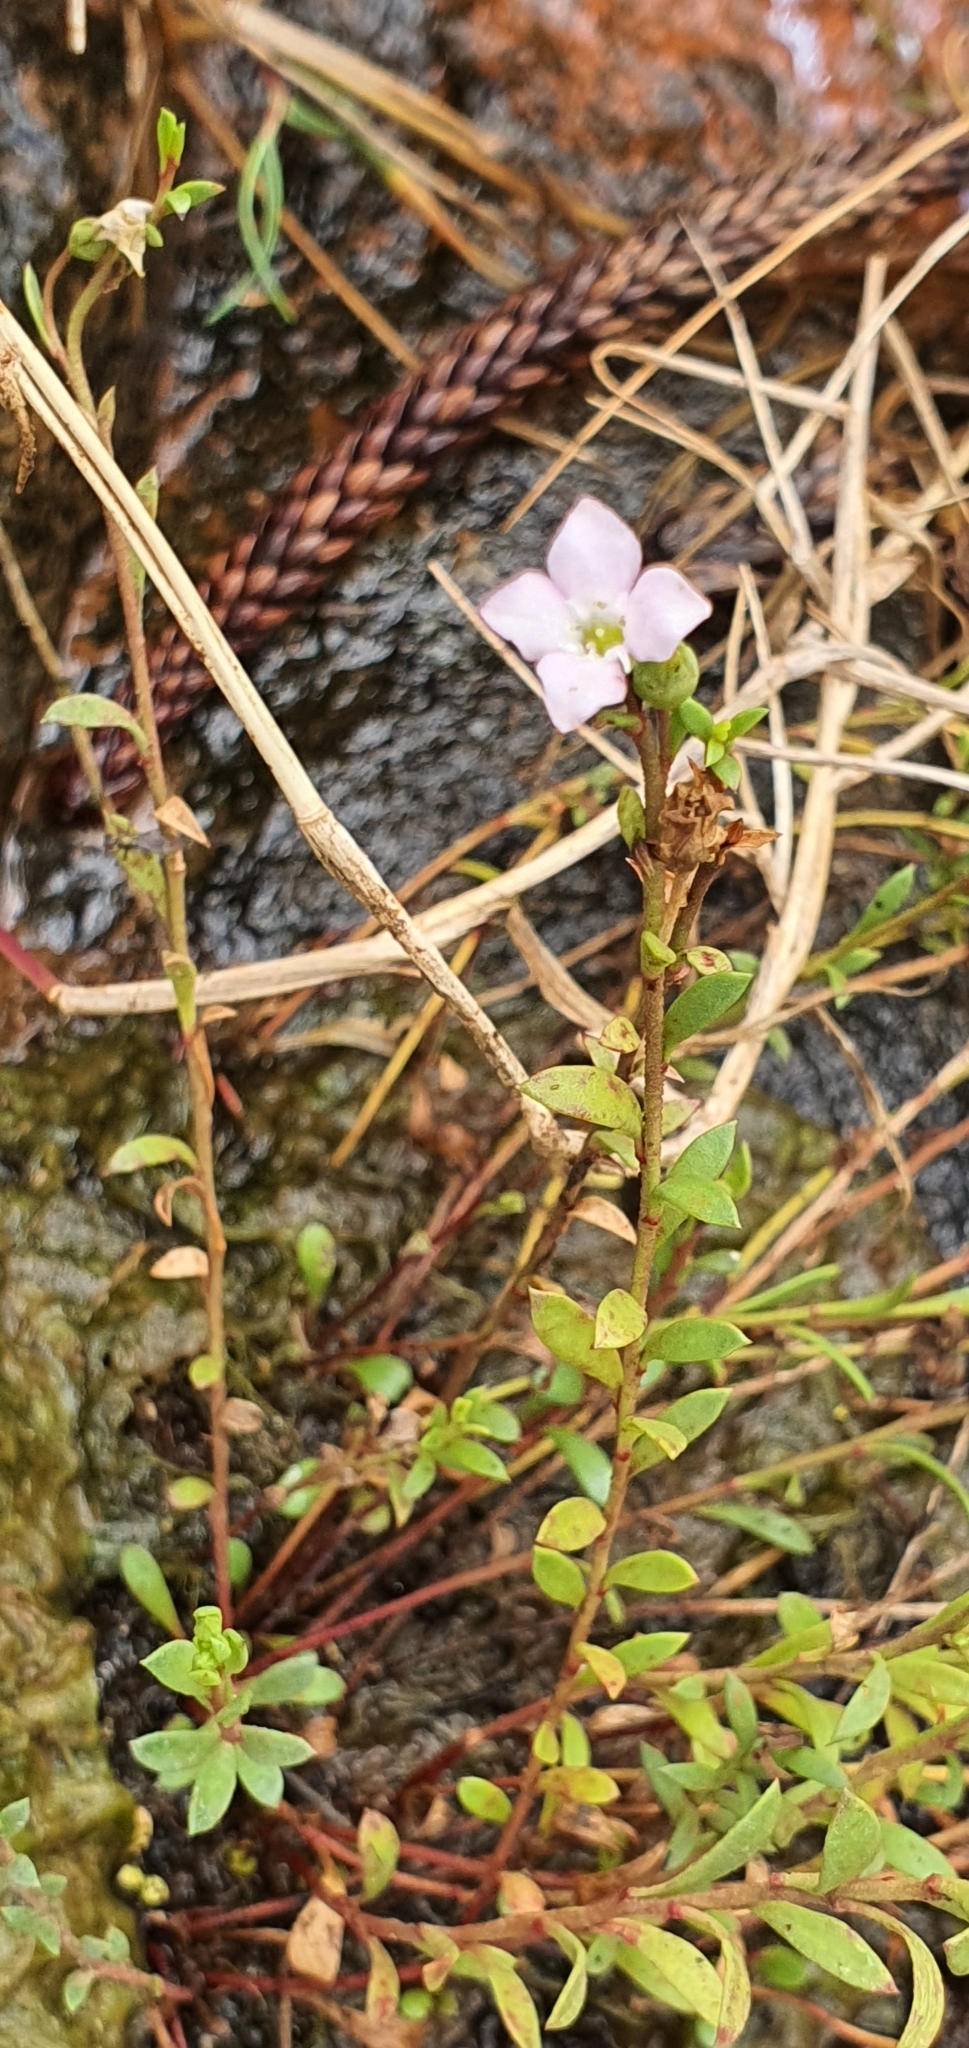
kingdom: Plantae
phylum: Tracheophyta
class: Magnoliopsida
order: Ericales
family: Primulaceae
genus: Samolus
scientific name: Samolus repens
